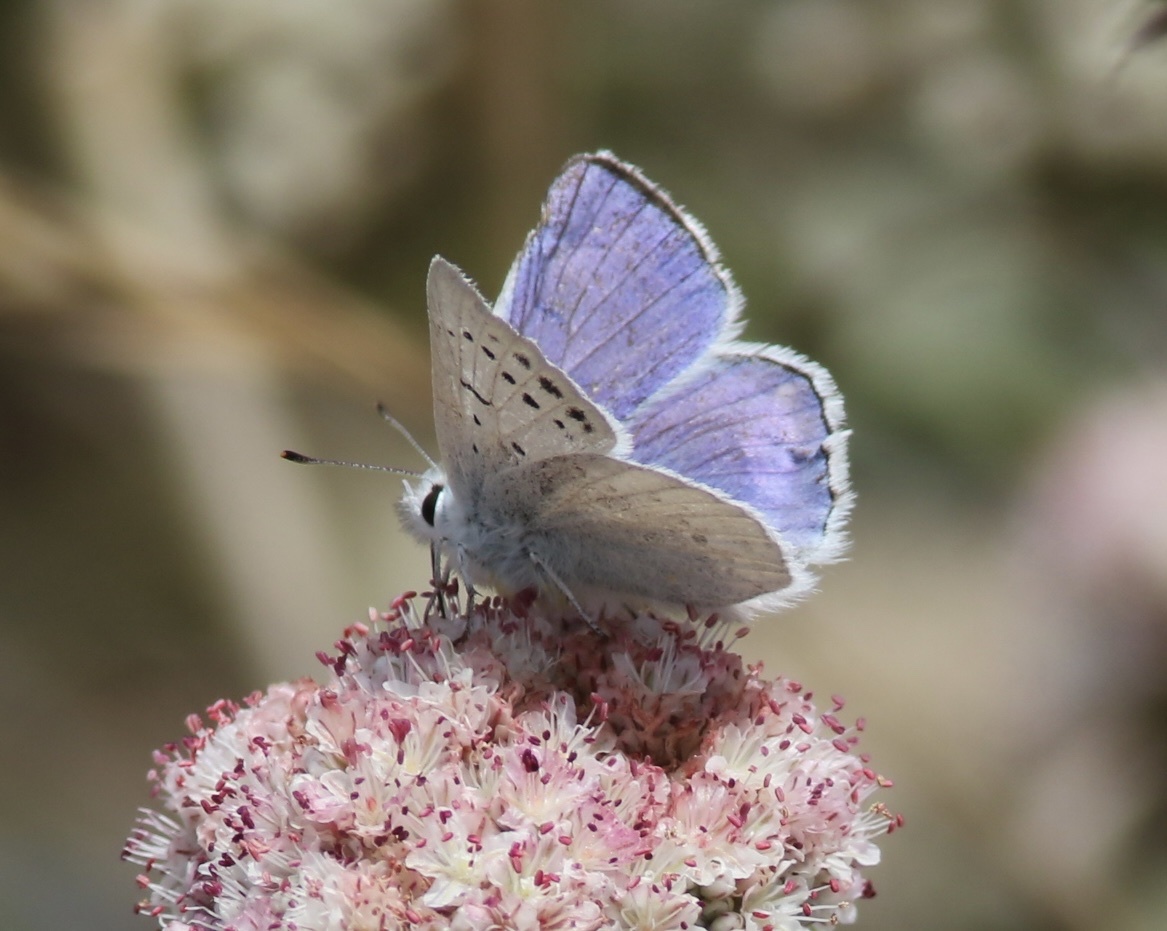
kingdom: Animalia
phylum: Arthropoda
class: Insecta
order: Lepidoptera
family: Lycaenidae
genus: Tharsalea
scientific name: Tharsalea heteronea
